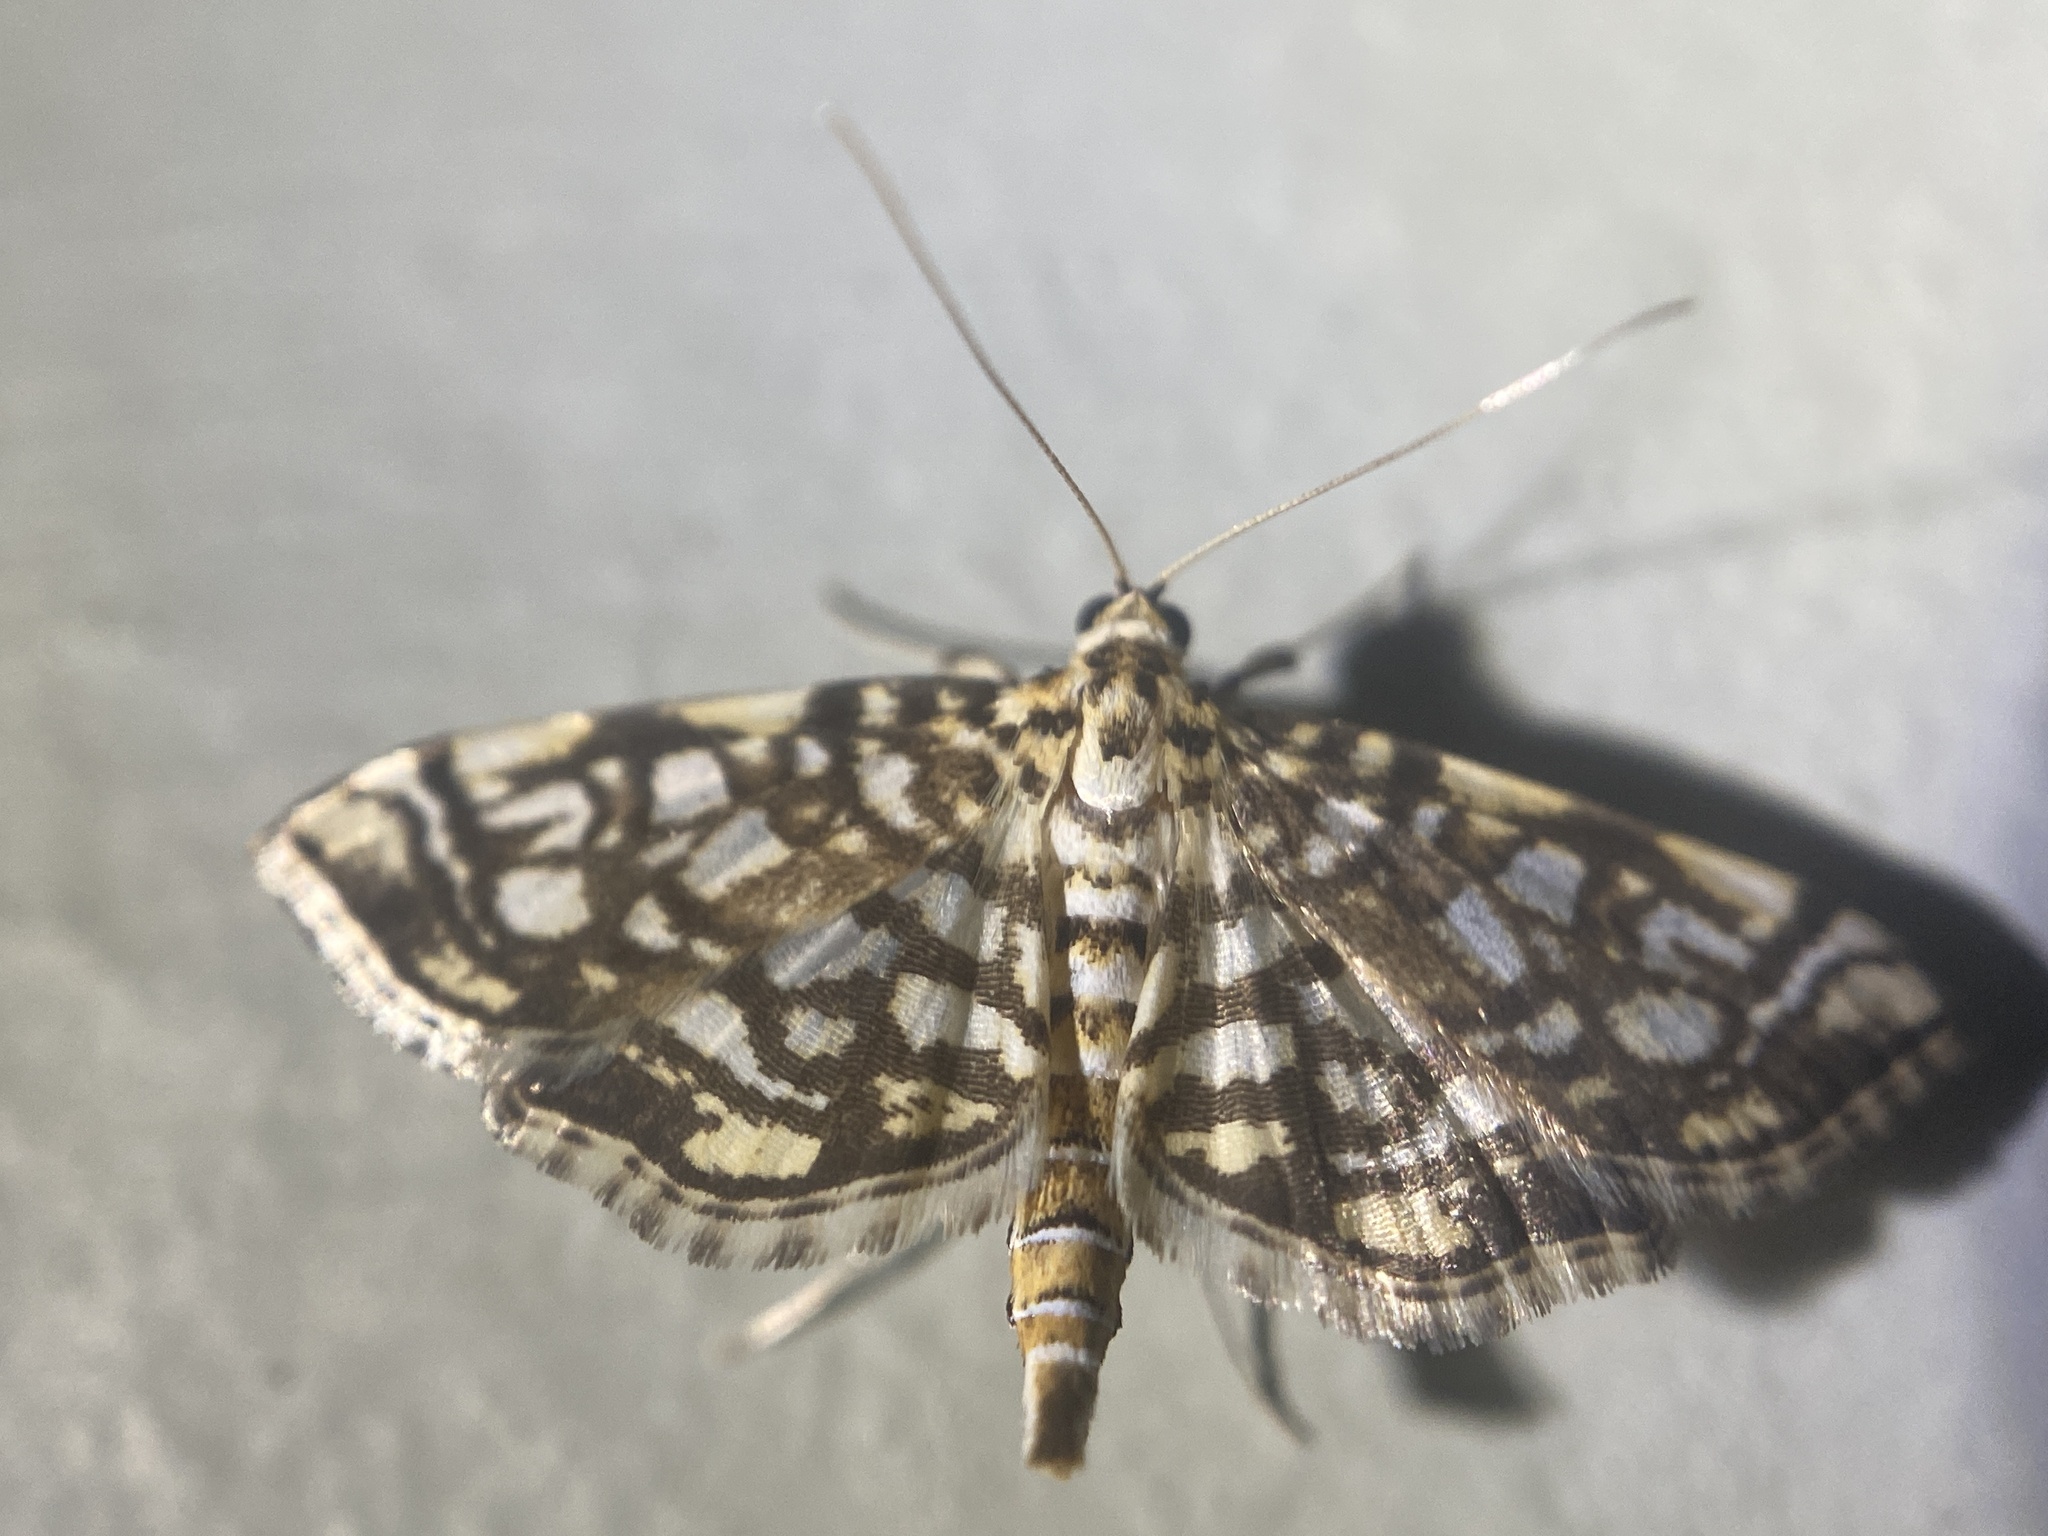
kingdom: Animalia
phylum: Arthropoda
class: Insecta
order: Lepidoptera
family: Crambidae
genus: Lygropia
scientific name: Lygropia rivulalis
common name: Bog lygropia moth
